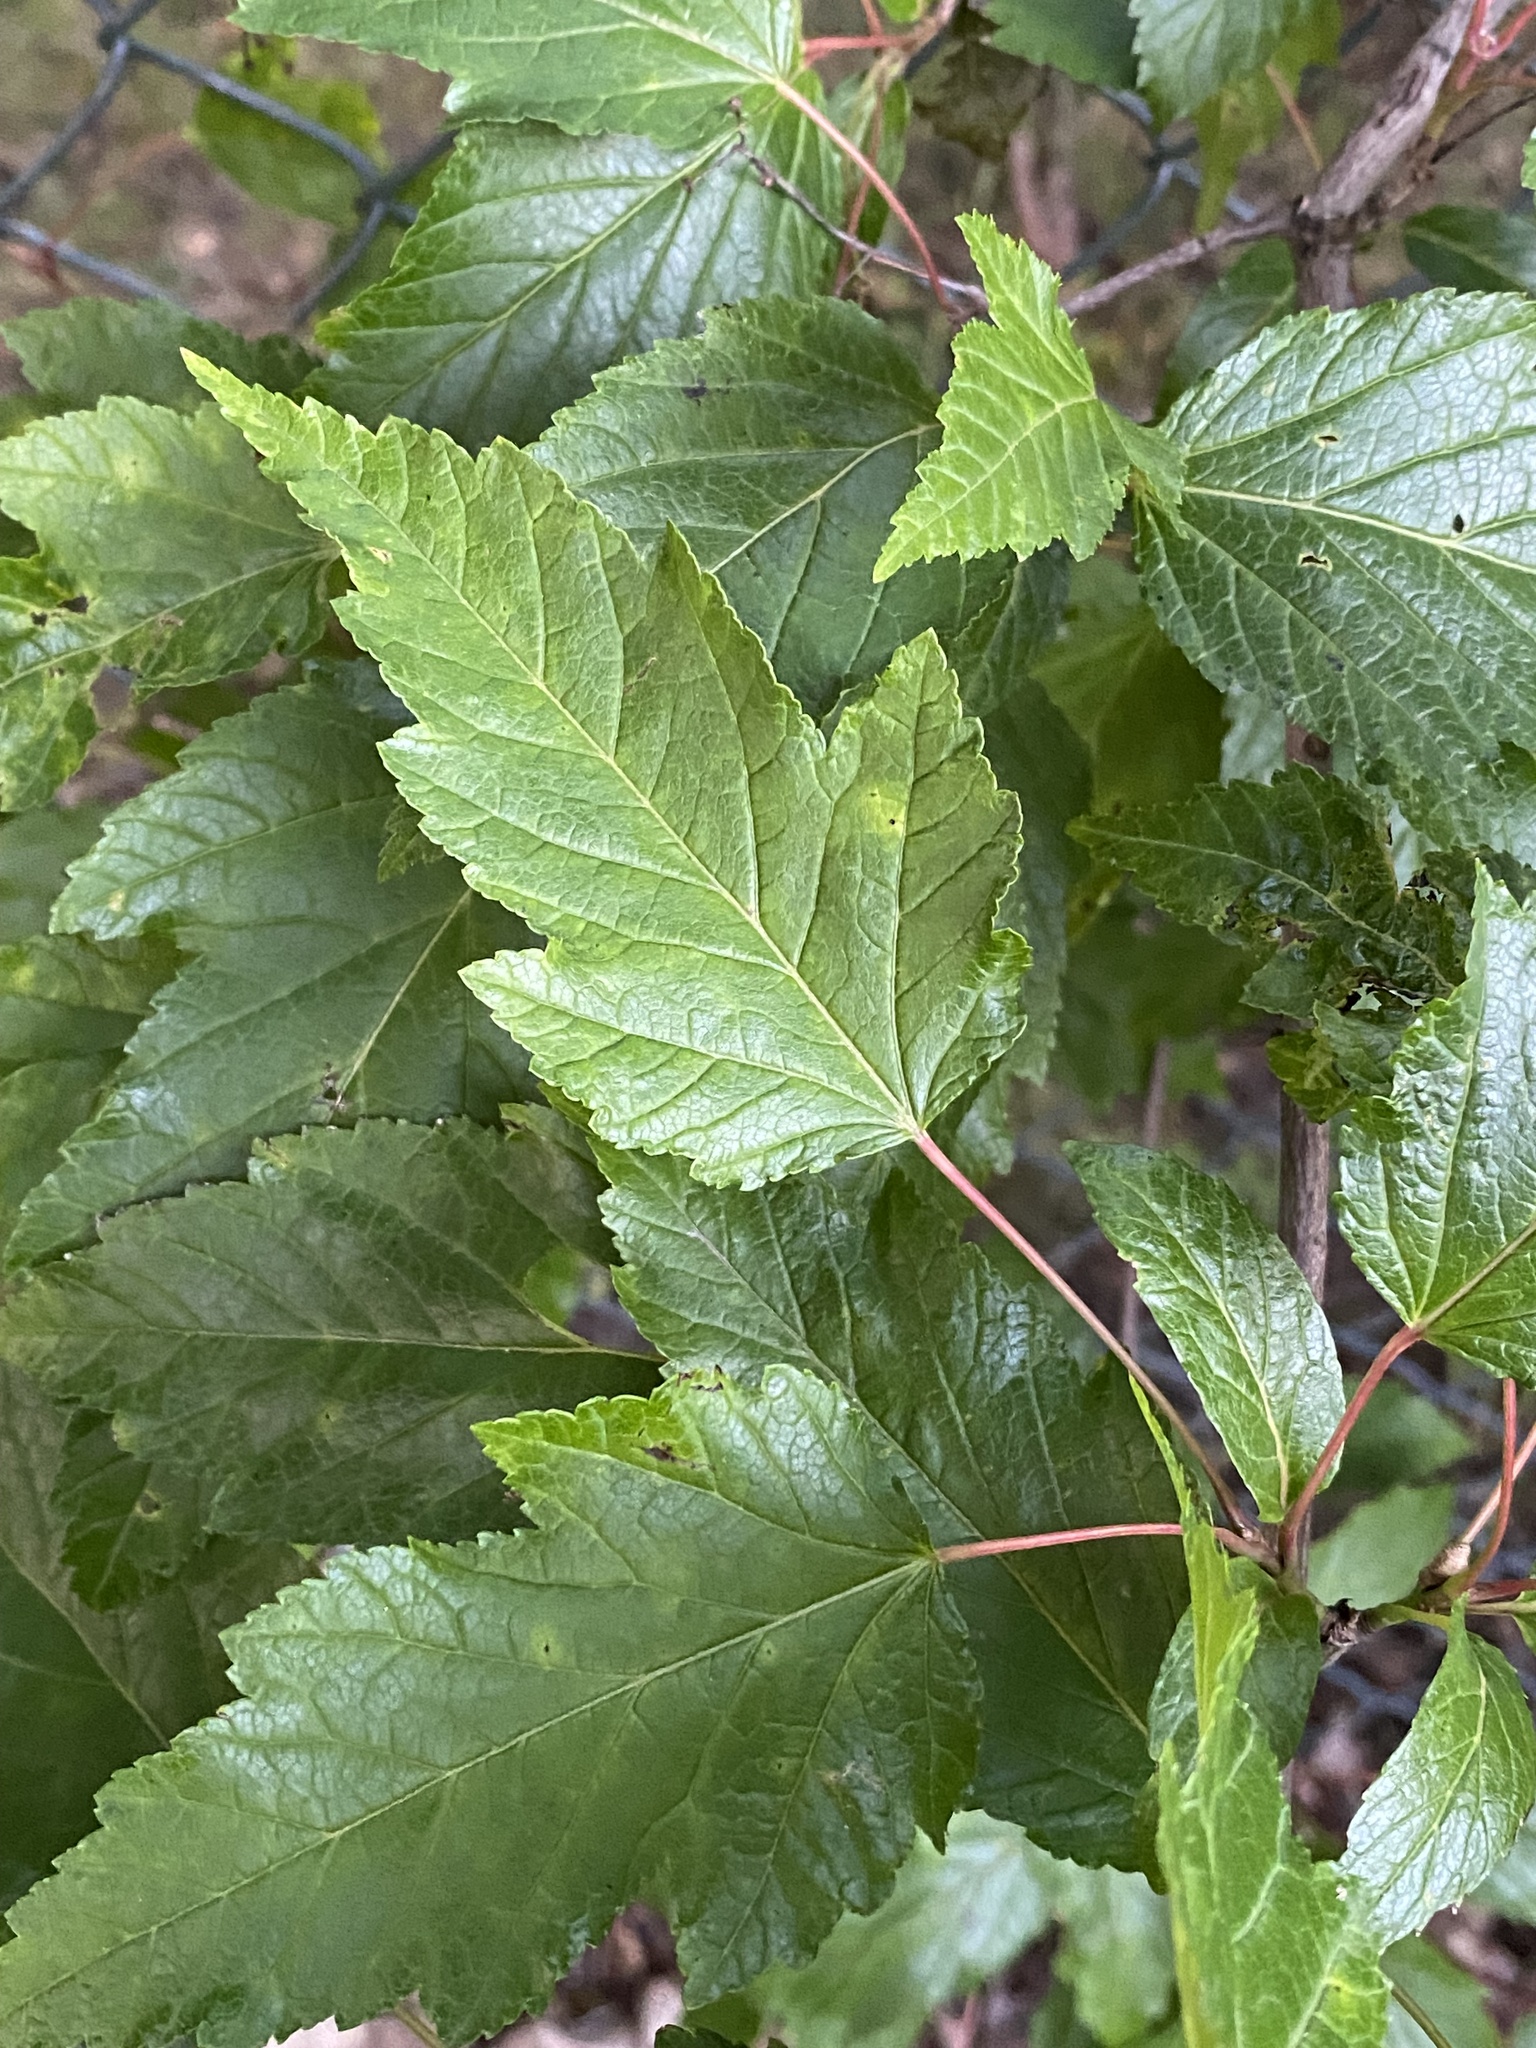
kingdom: Plantae
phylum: Tracheophyta
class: Magnoliopsida
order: Sapindales
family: Sapindaceae
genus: Acer
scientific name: Acer tataricum
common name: Tartar maple
